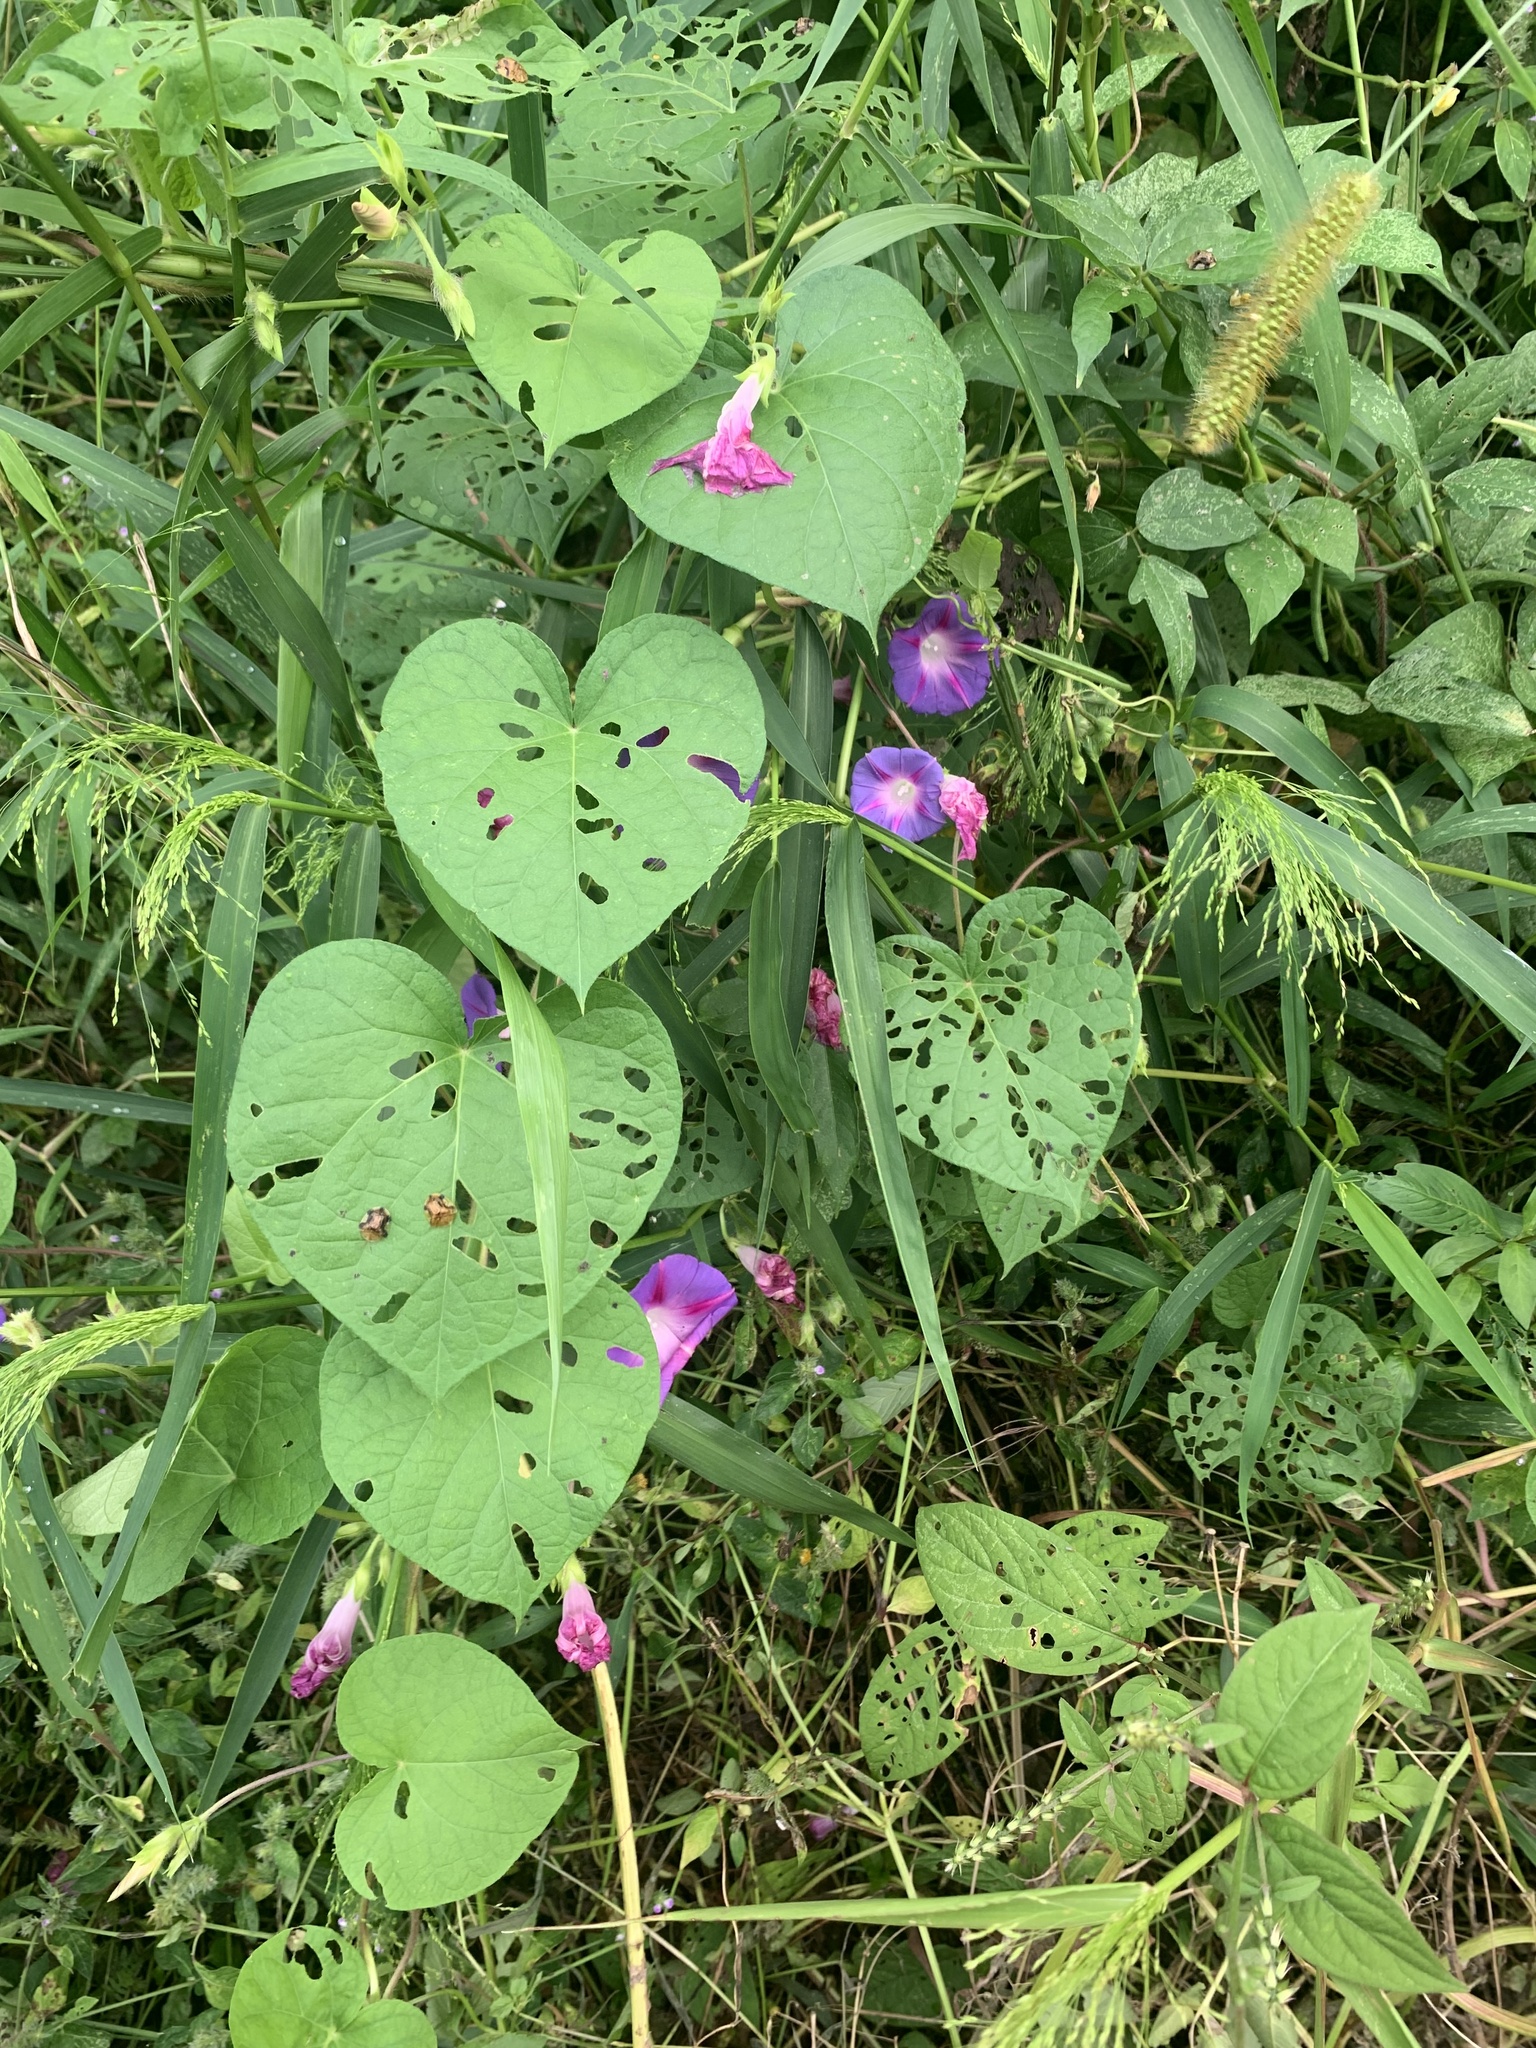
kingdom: Plantae
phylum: Tracheophyta
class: Magnoliopsida
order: Solanales
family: Convolvulaceae
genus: Ipomoea
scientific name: Ipomoea purpurea
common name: Common morning-glory
